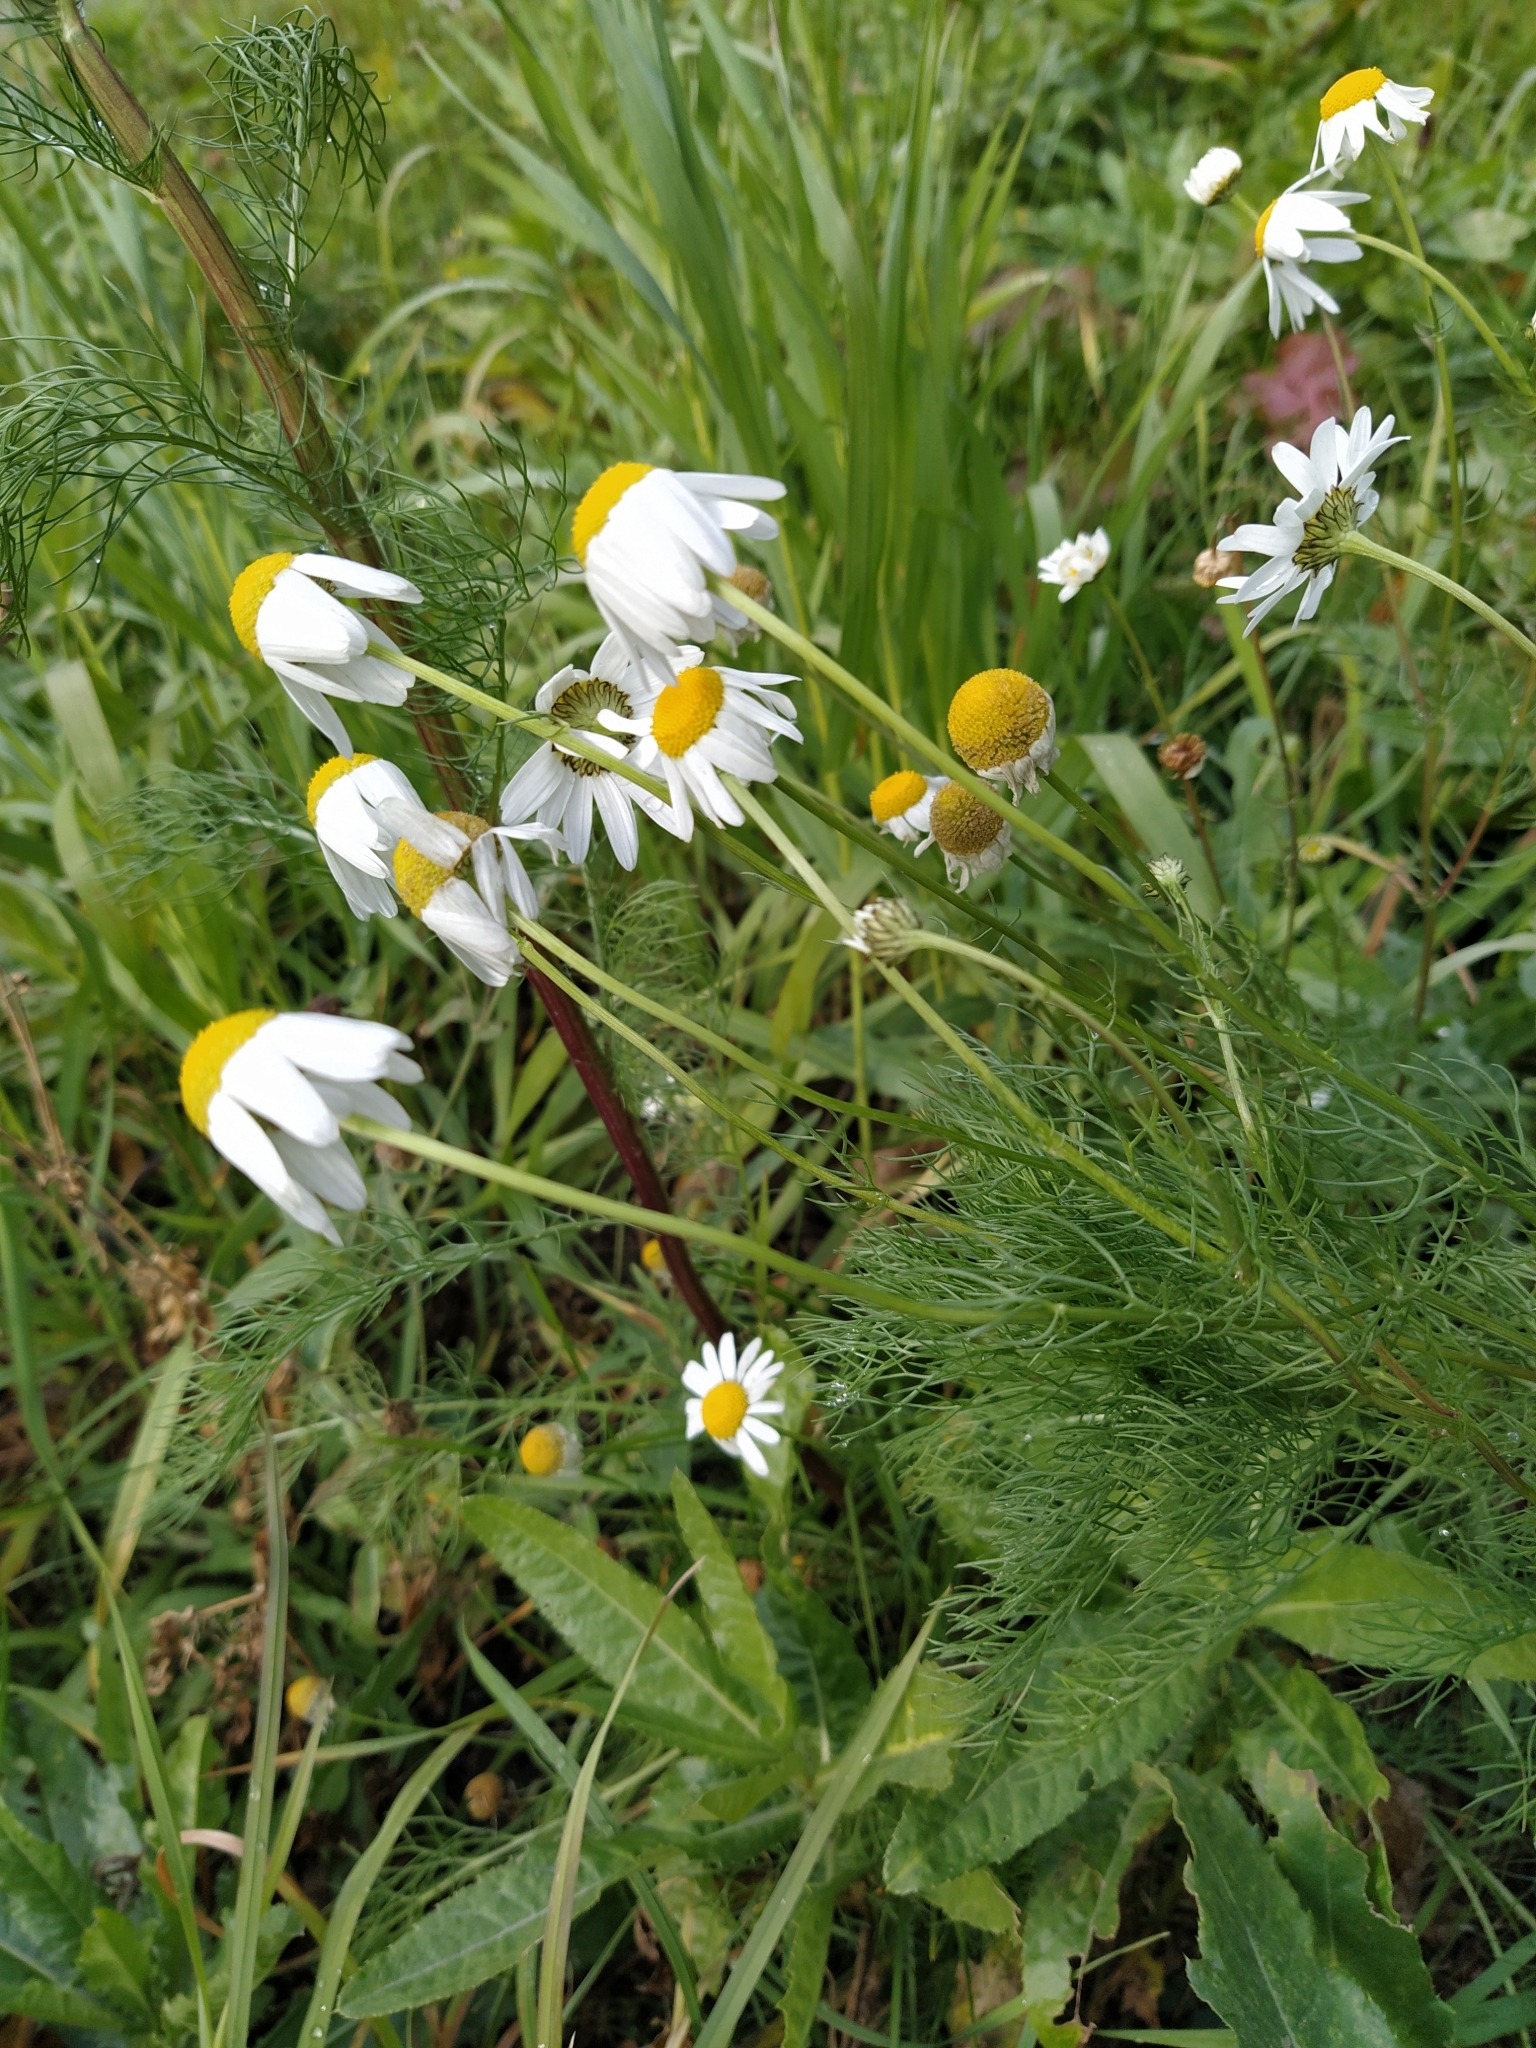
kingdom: Plantae
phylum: Tracheophyta
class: Magnoliopsida
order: Asterales
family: Asteraceae
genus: Tripleurospermum
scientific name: Tripleurospermum inodorum
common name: Scentless mayweed
